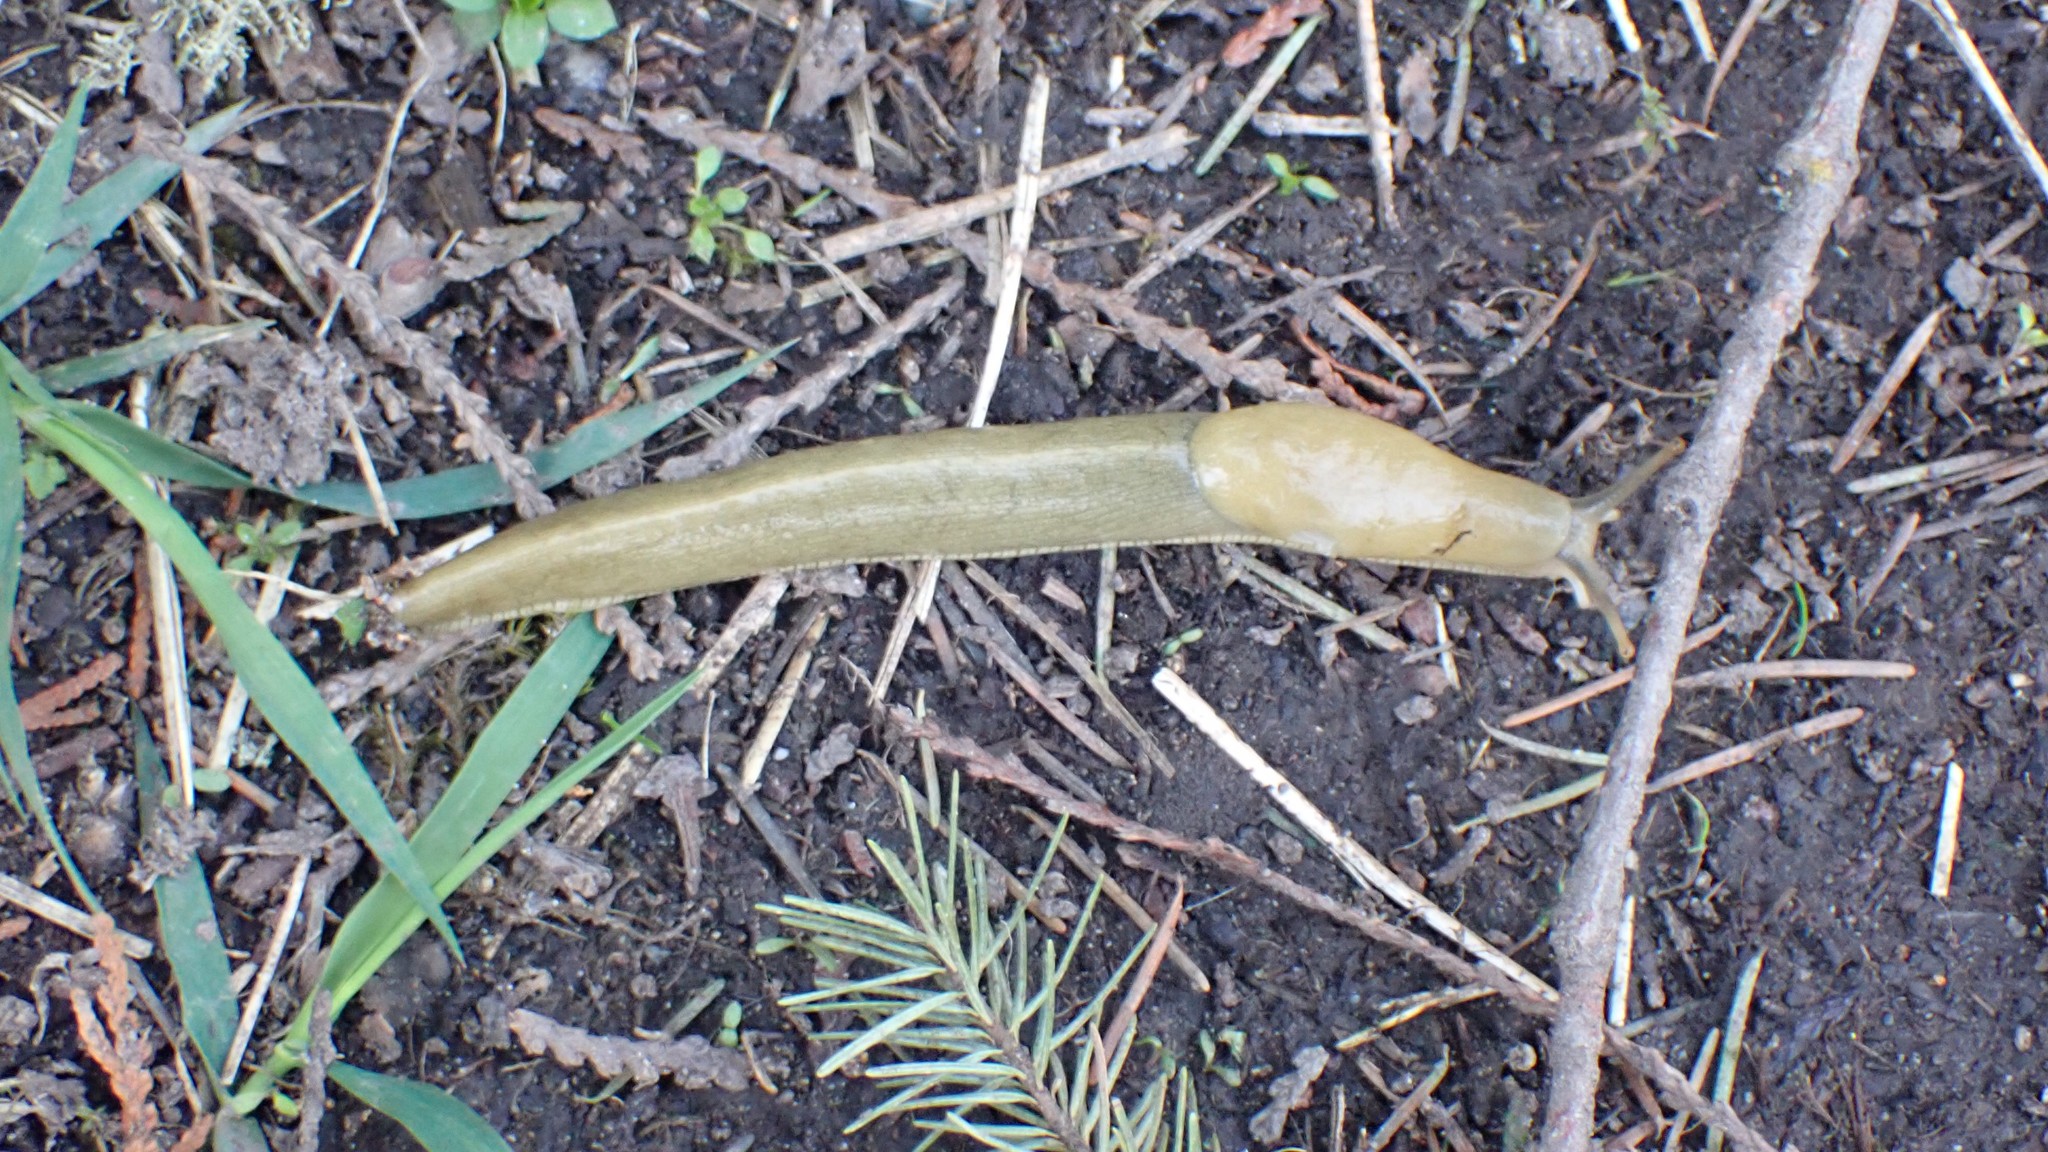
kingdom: Animalia
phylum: Mollusca
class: Gastropoda
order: Stylommatophora
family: Ariolimacidae
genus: Ariolimax
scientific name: Ariolimax columbianus
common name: Pacific banana slug
